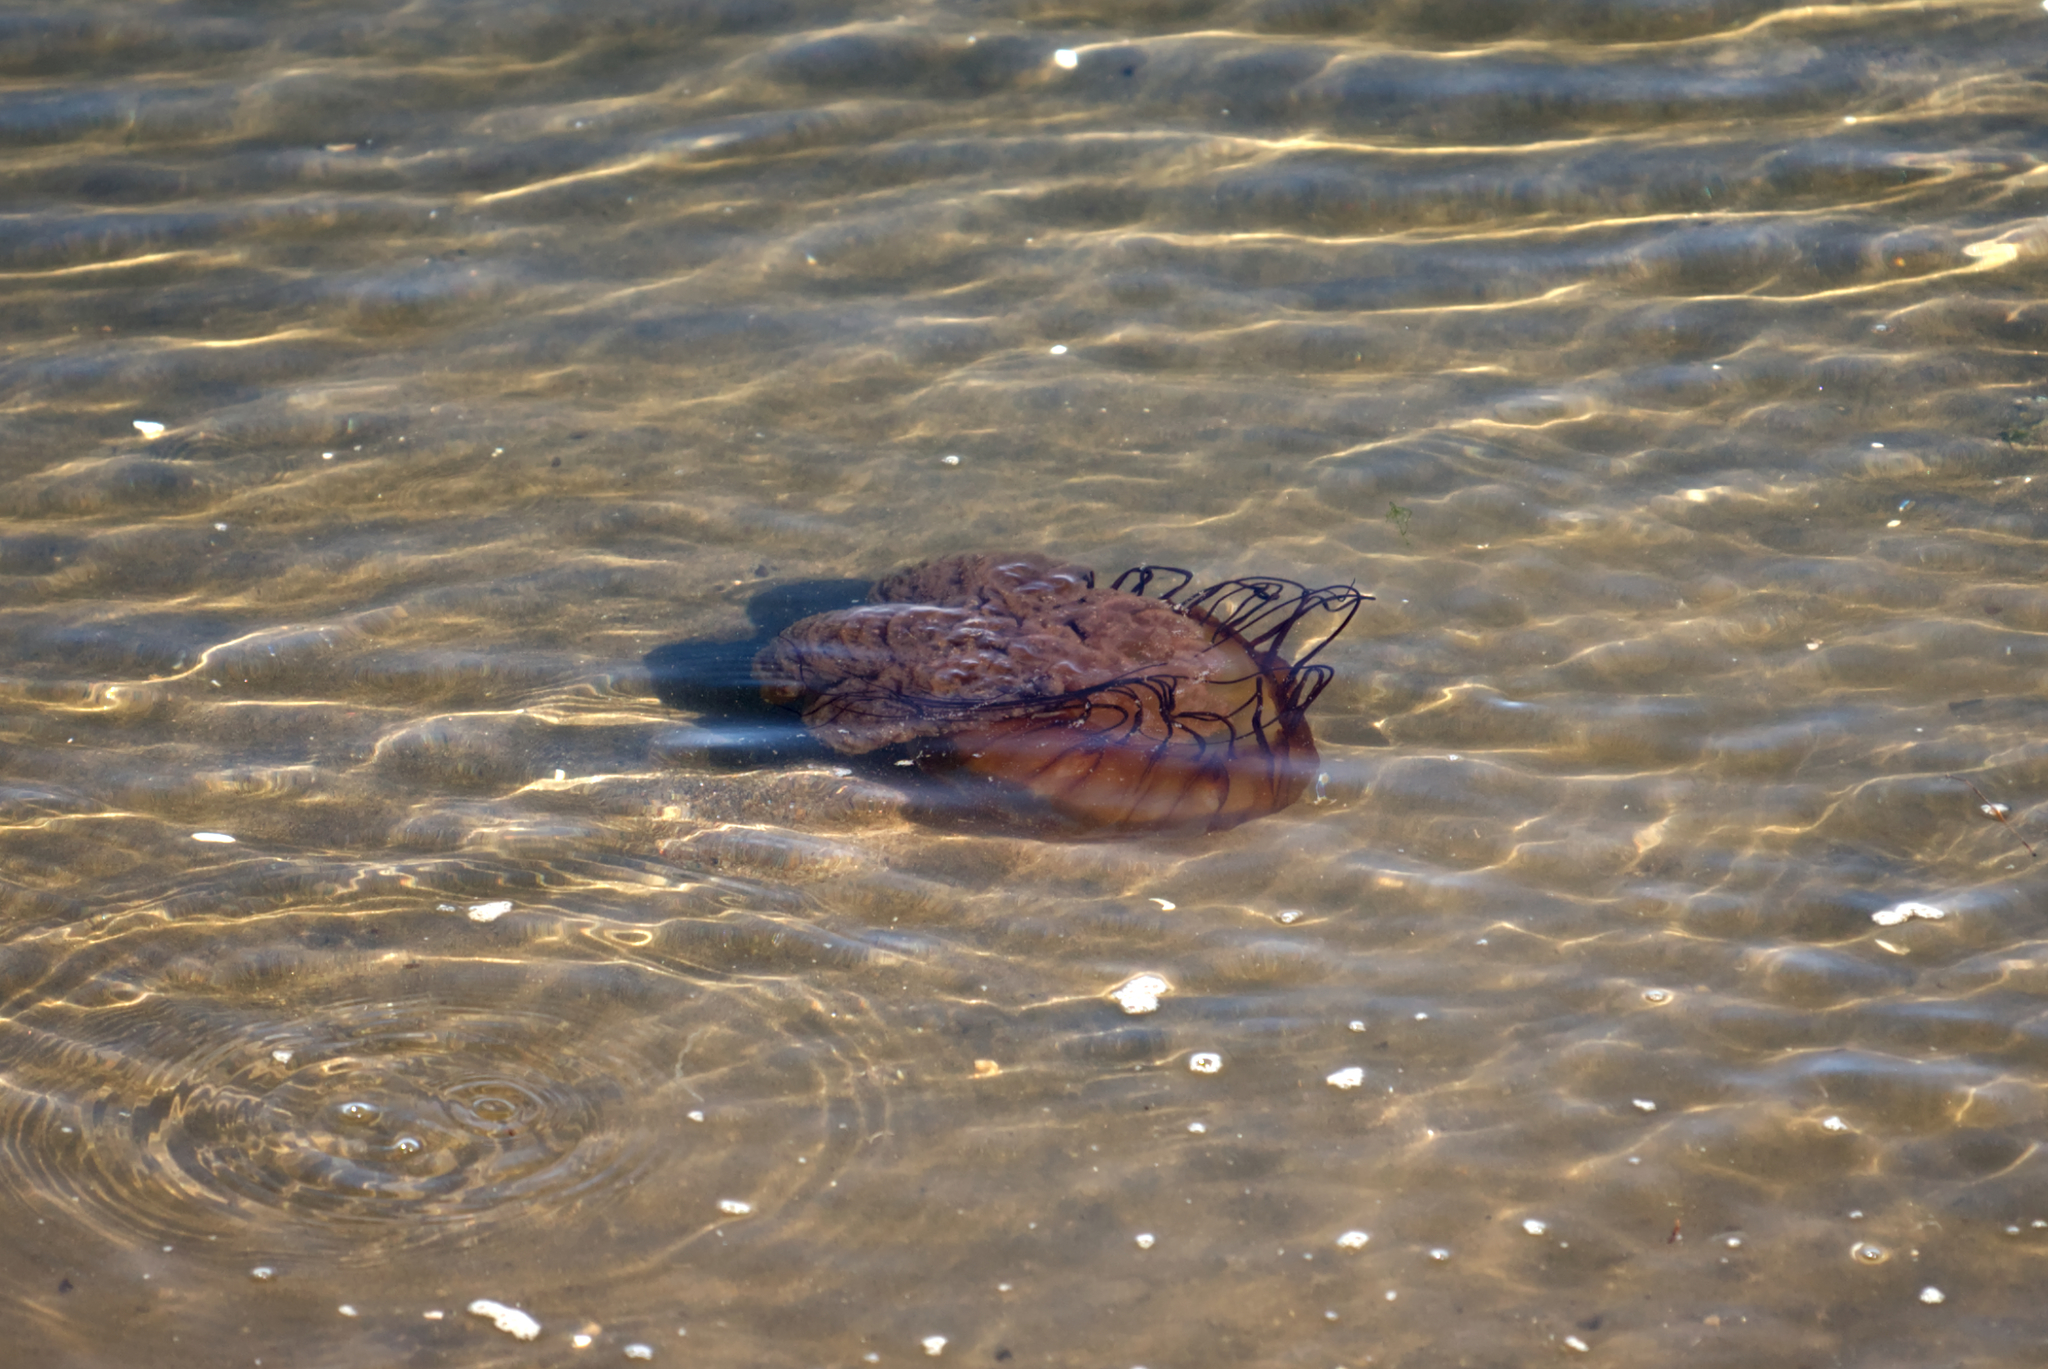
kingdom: Animalia
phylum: Cnidaria
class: Scyphozoa
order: Semaeostomeae
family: Pelagiidae
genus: Chrysaora
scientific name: Chrysaora fuscescens
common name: Sea nettle
